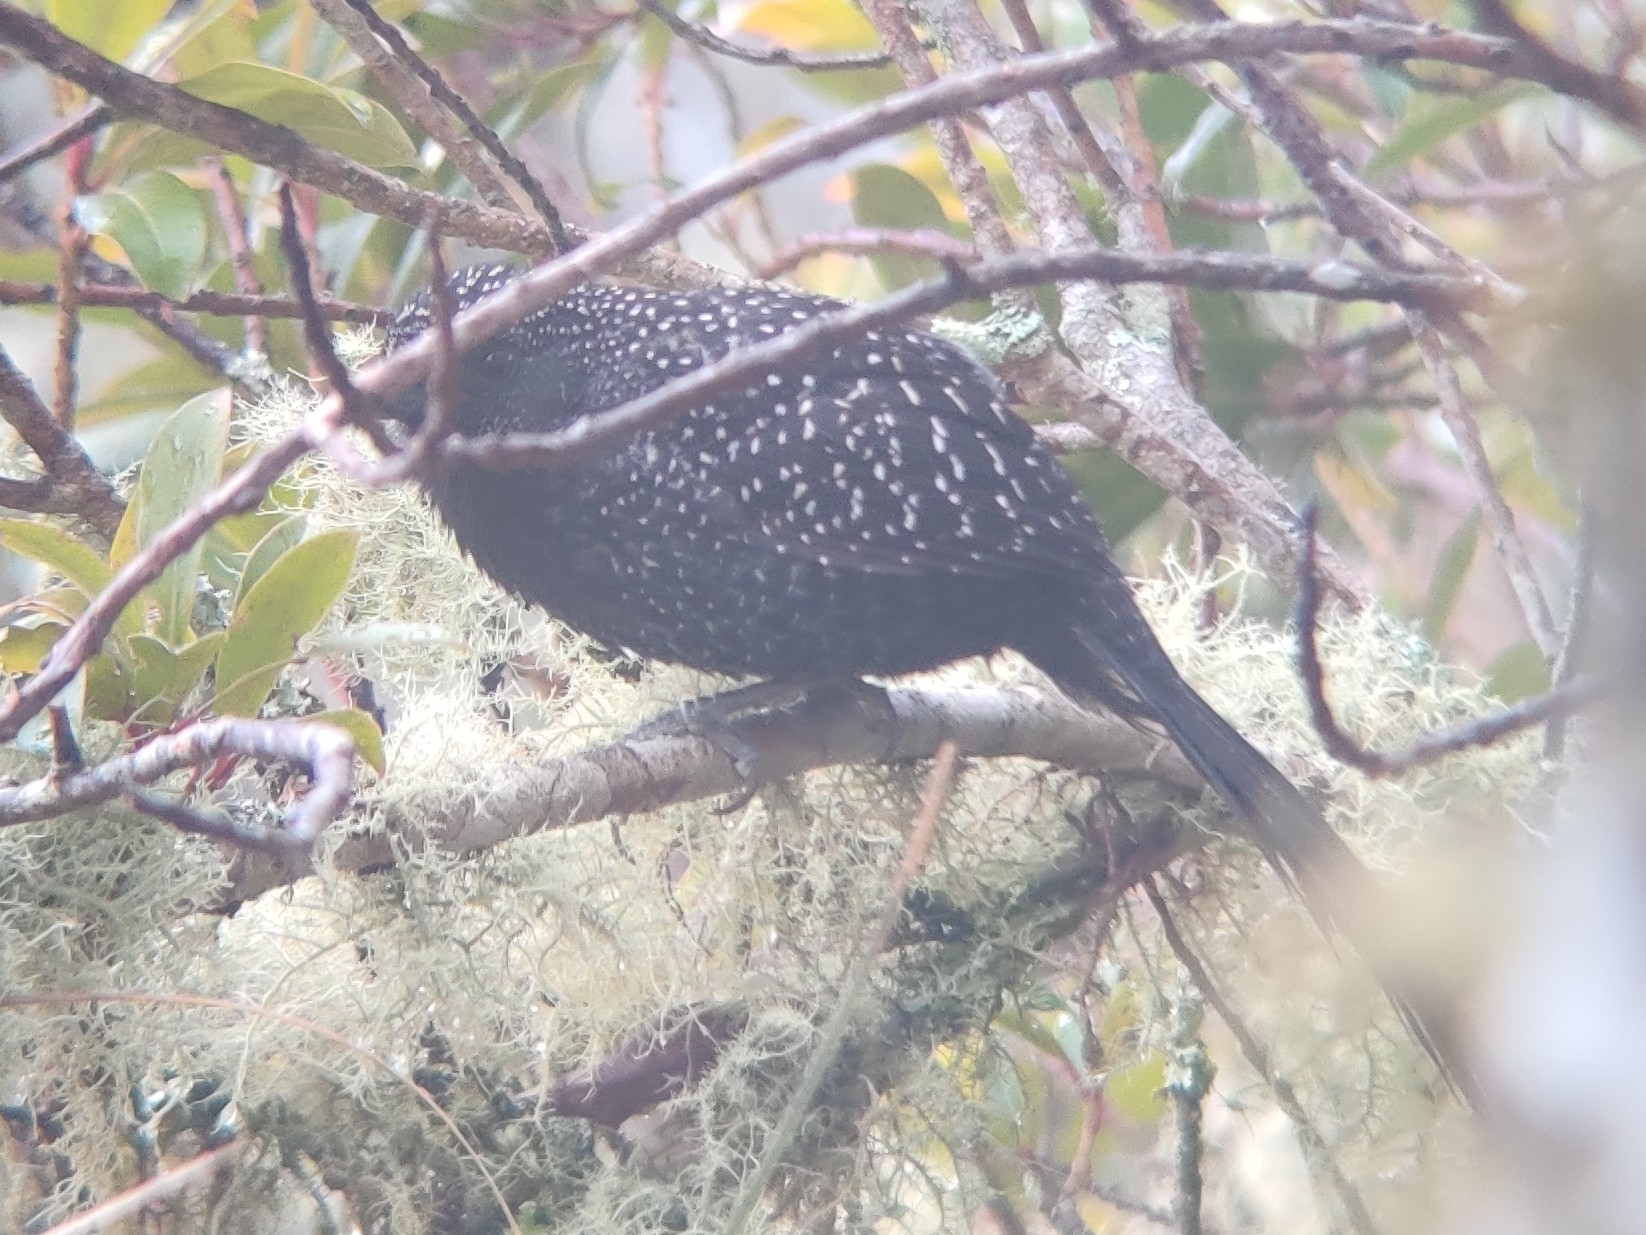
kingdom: Animalia
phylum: Chordata
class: Aves
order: Passeriformes
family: Thamnophilidae
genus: Mackenziaena
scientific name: Mackenziaena leachii
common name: Large-tailed antshrike
